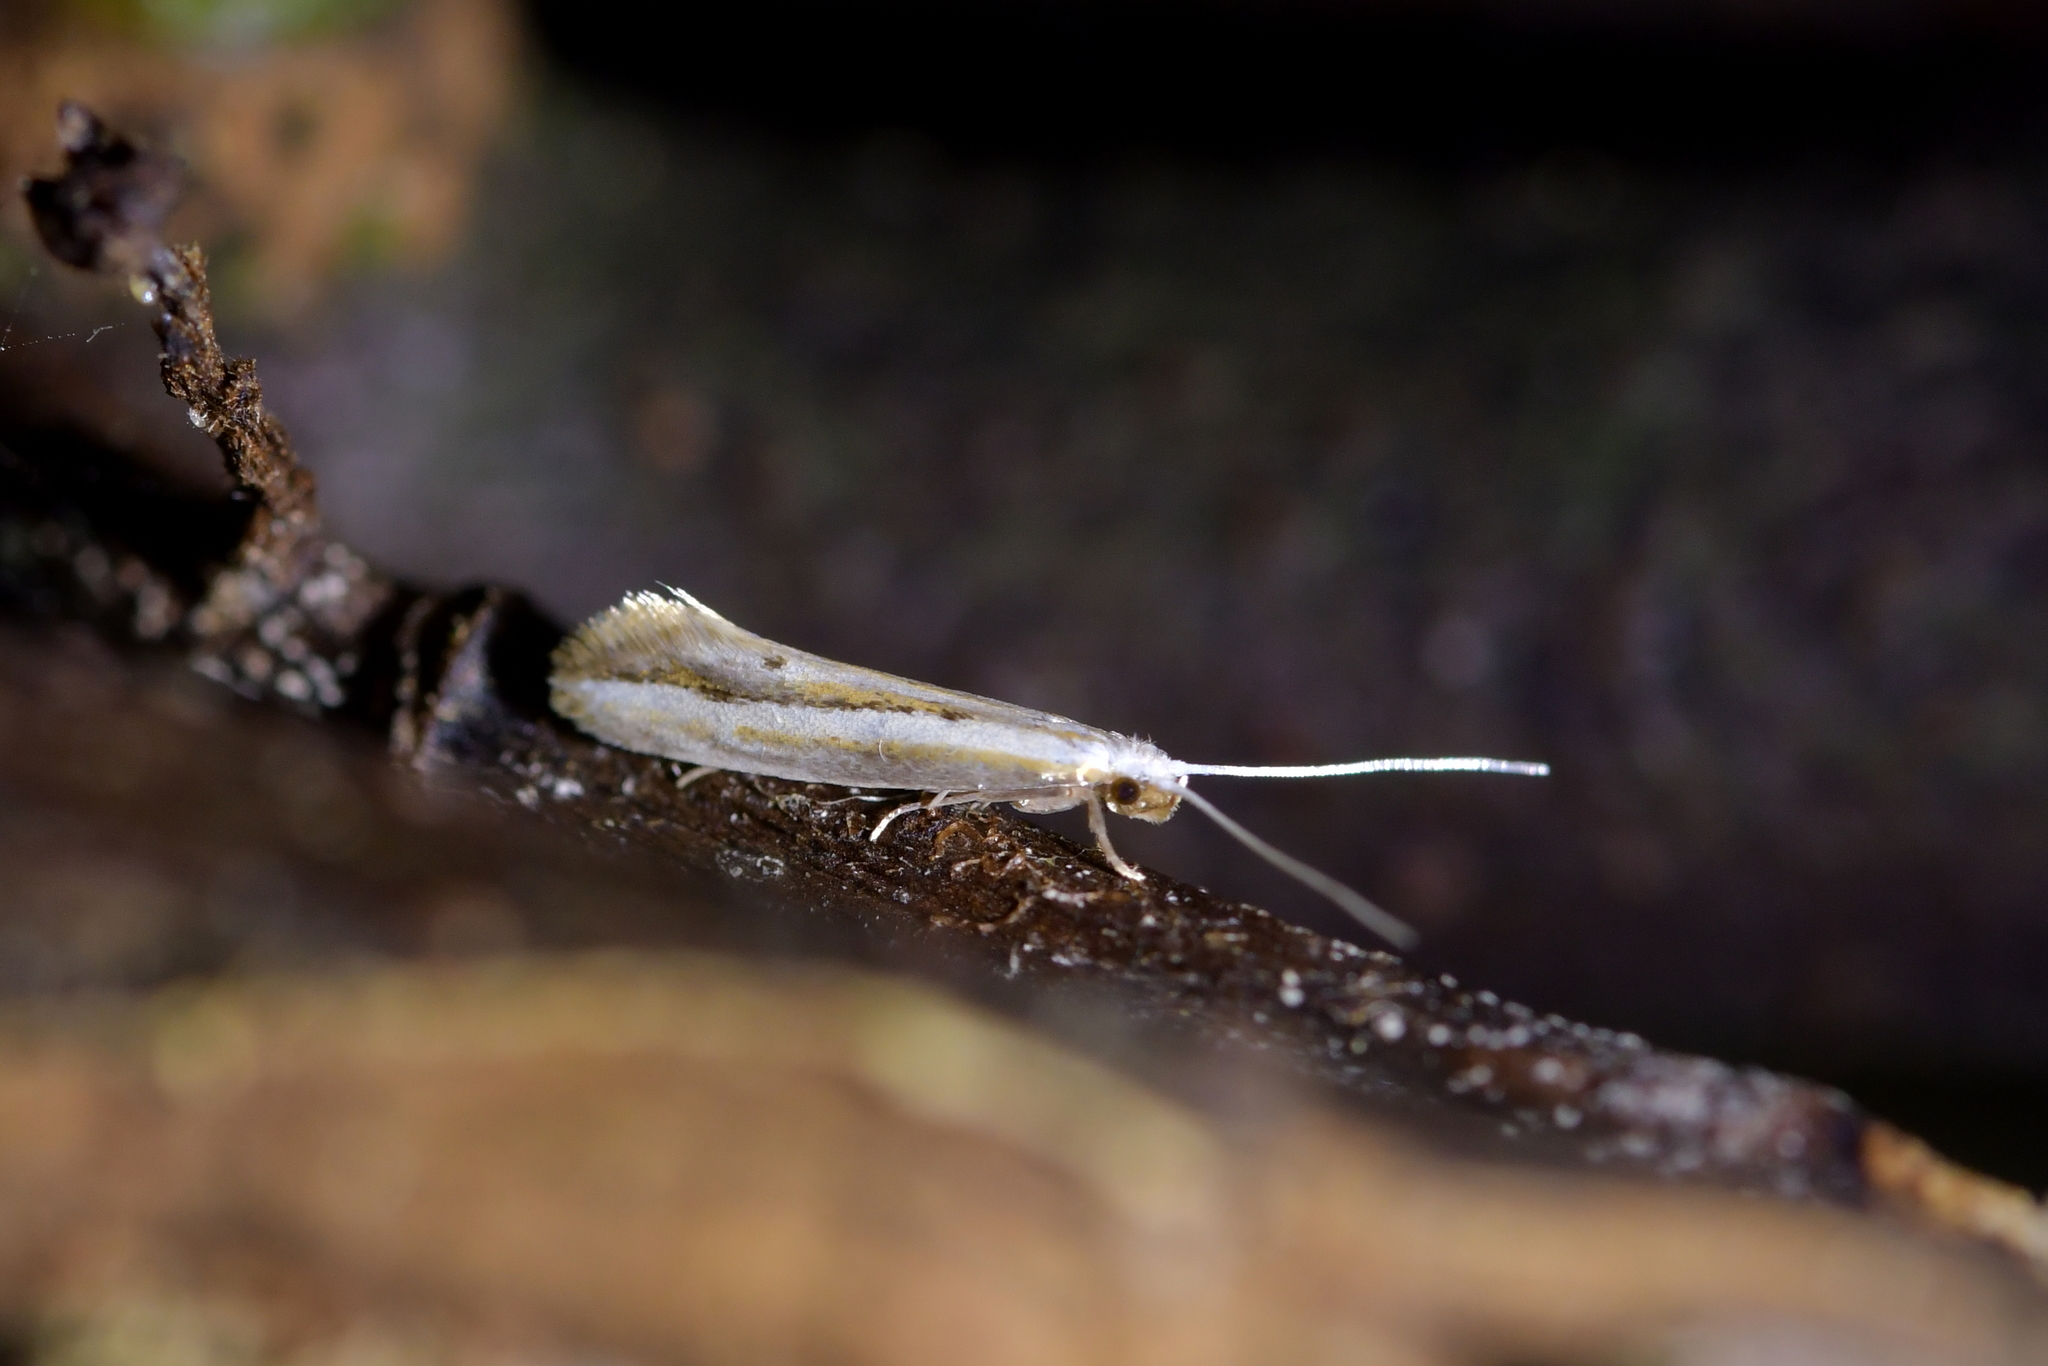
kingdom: Animalia
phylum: Arthropoda
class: Insecta
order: Lepidoptera
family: Tineidae
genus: Sagephora
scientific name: Sagephora exsanguis
